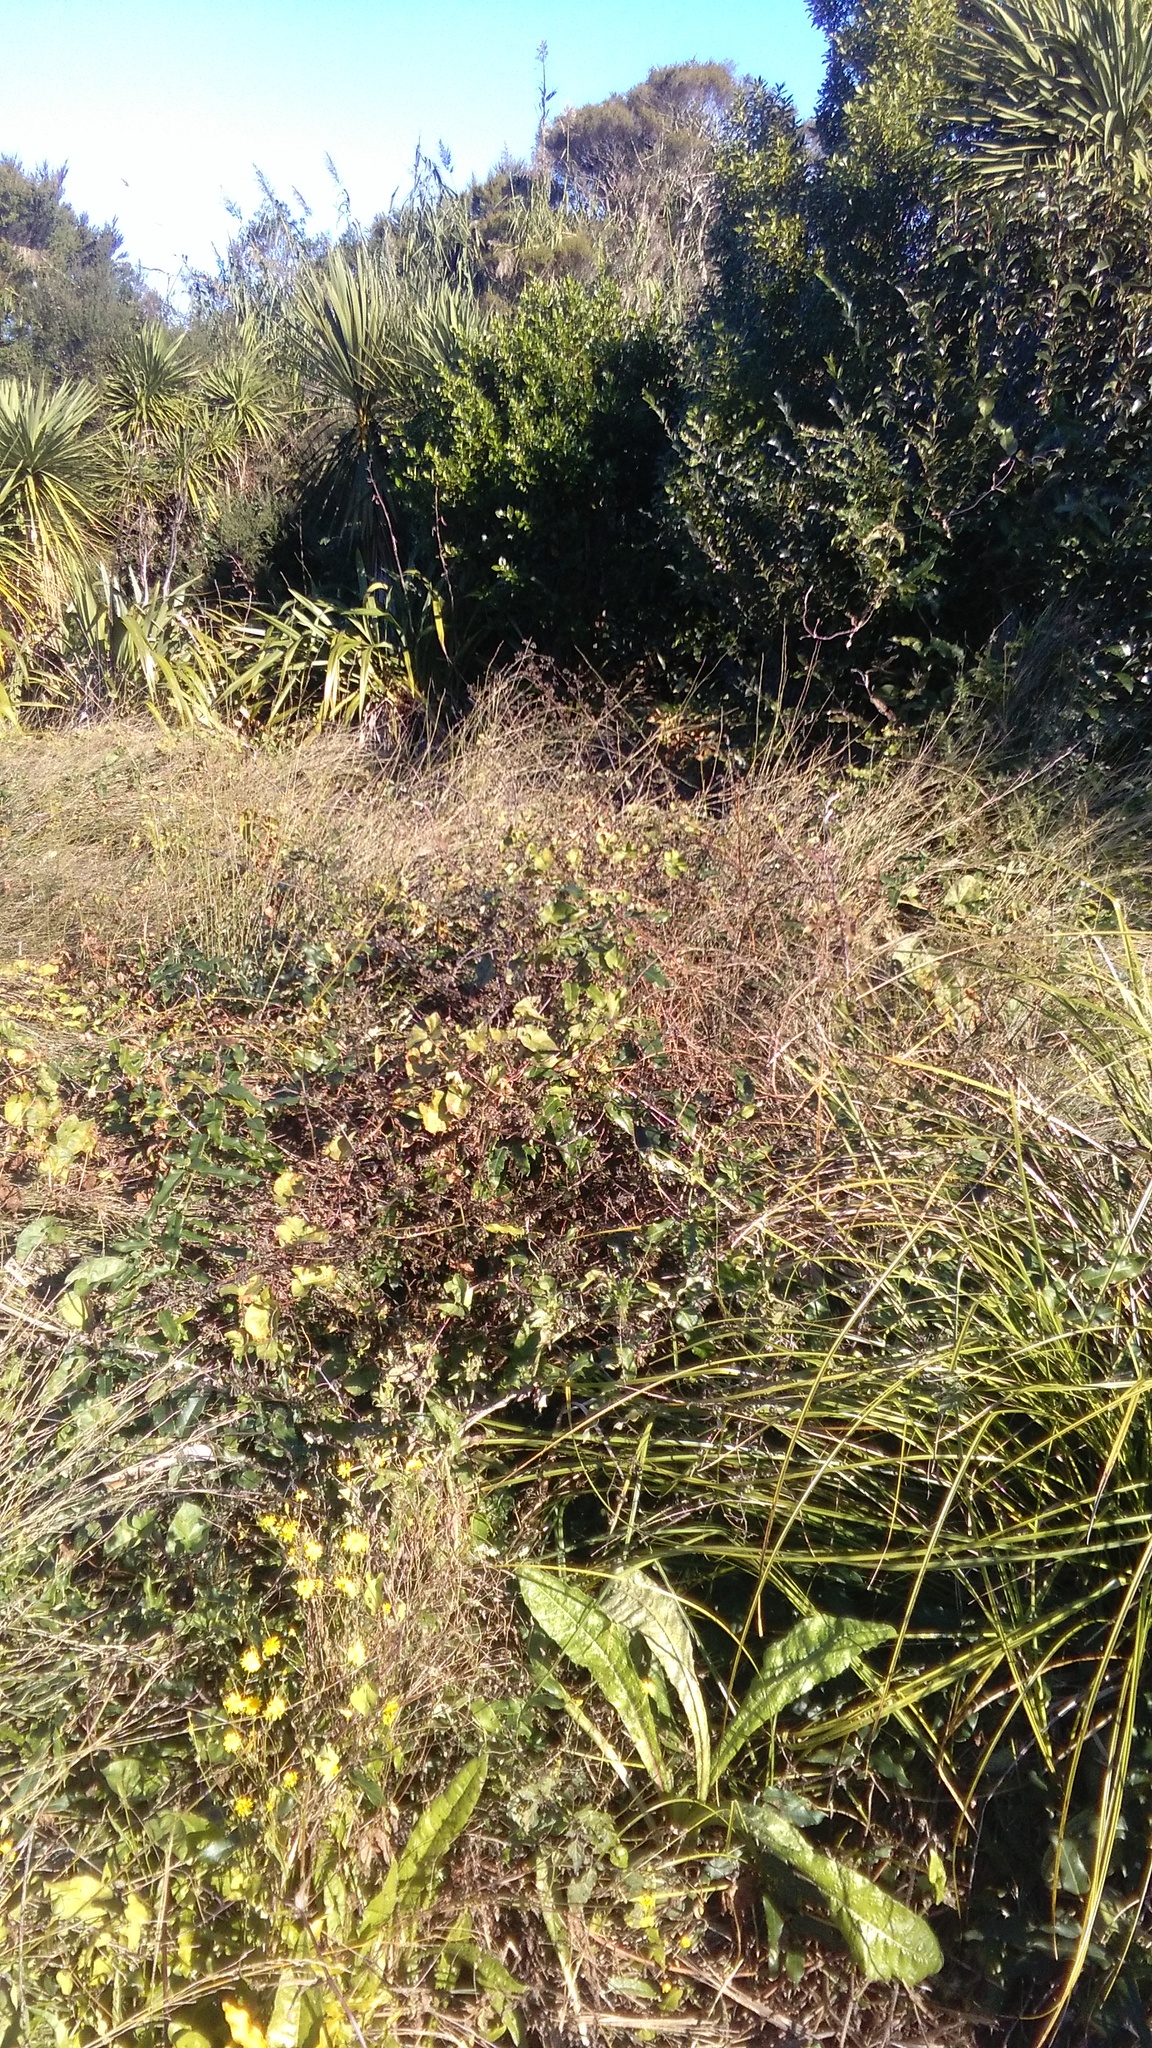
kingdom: Plantae
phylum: Tracheophyta
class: Magnoliopsida
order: Gentianales
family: Apocynaceae
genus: Araujia
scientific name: Araujia sericifera
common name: White bladderflower
